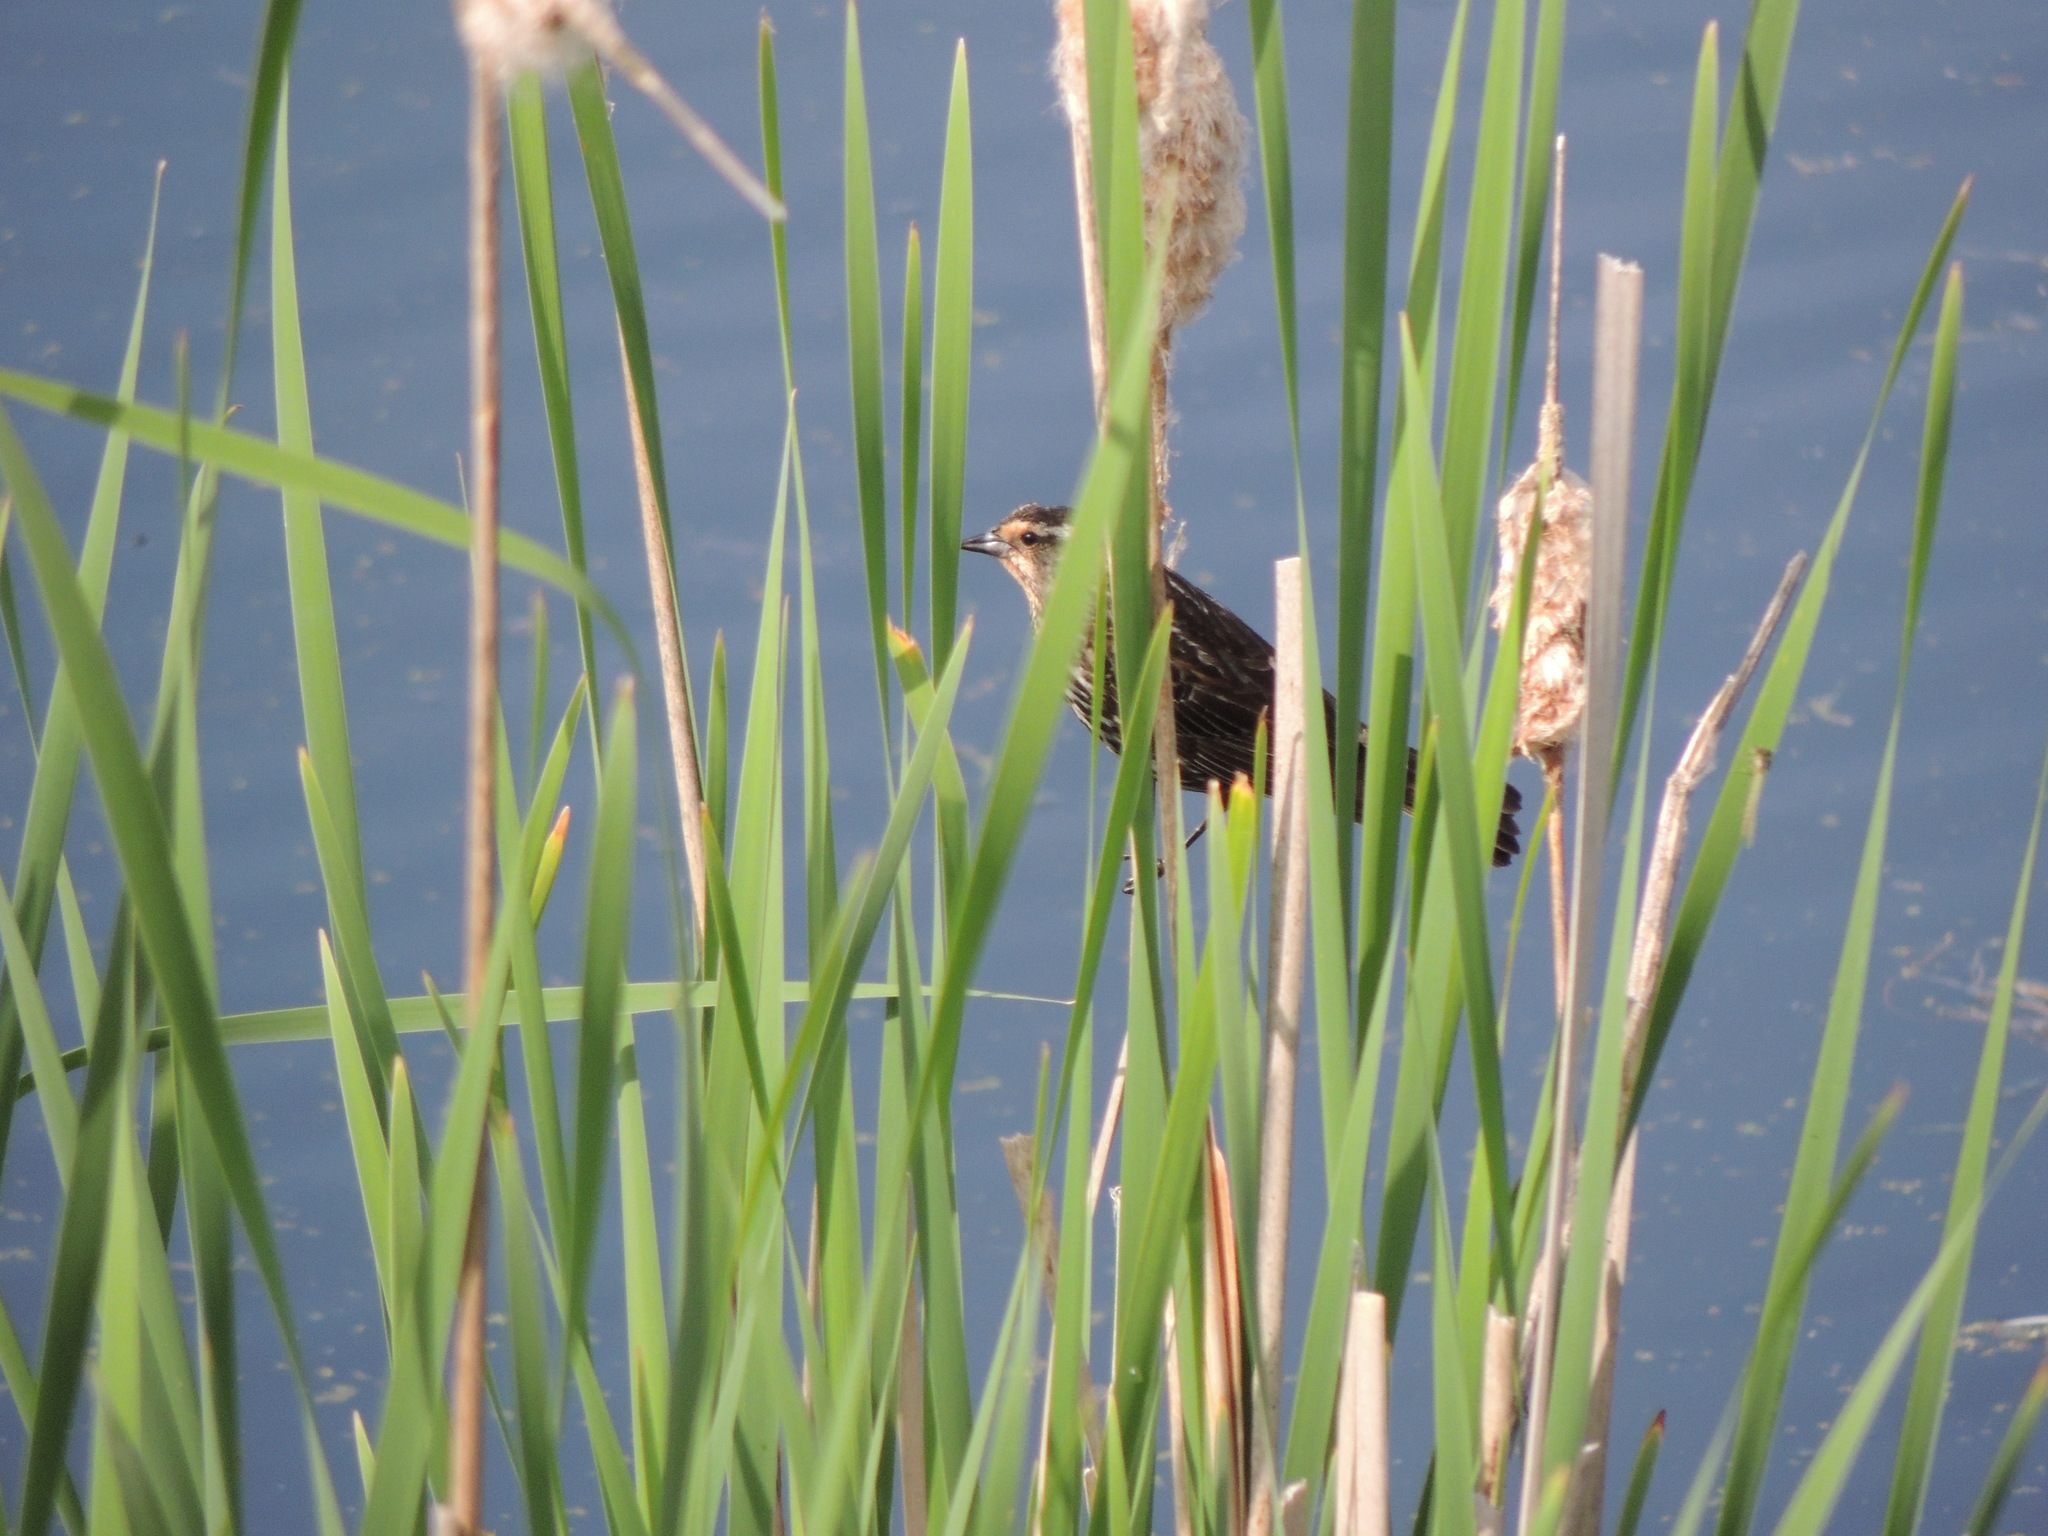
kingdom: Animalia
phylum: Chordata
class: Aves
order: Passeriformes
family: Icteridae
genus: Agelaius
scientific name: Agelaius phoeniceus
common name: Red-winged blackbird
